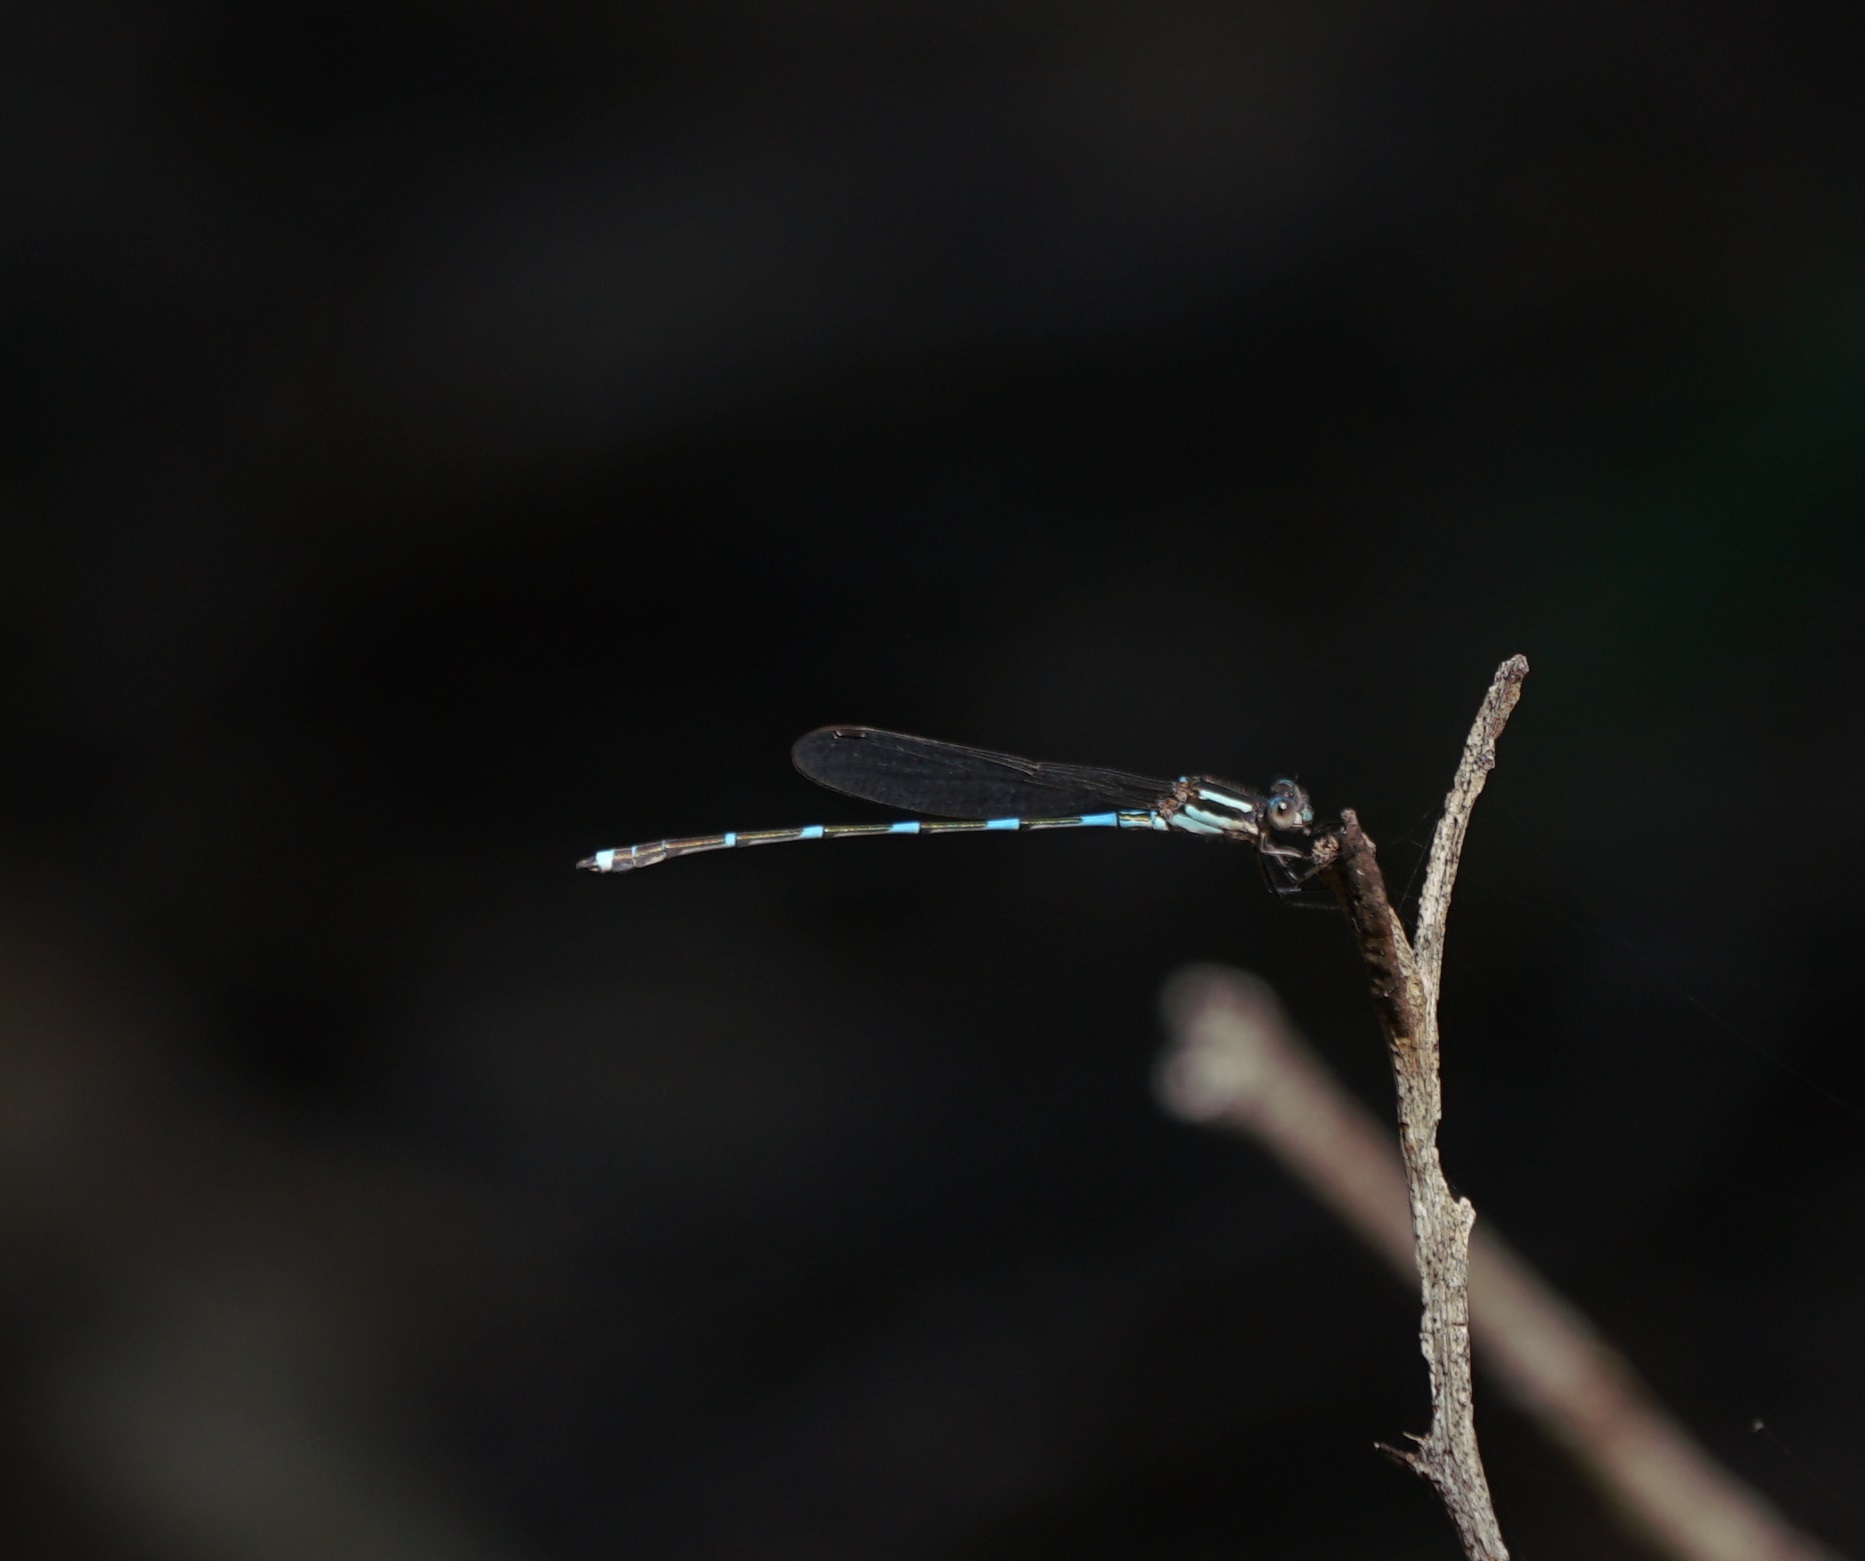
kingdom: Animalia
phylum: Arthropoda
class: Insecta
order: Odonata
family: Lestidae
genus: Austrolestes
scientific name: Austrolestes leda
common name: Wandering ringtail
